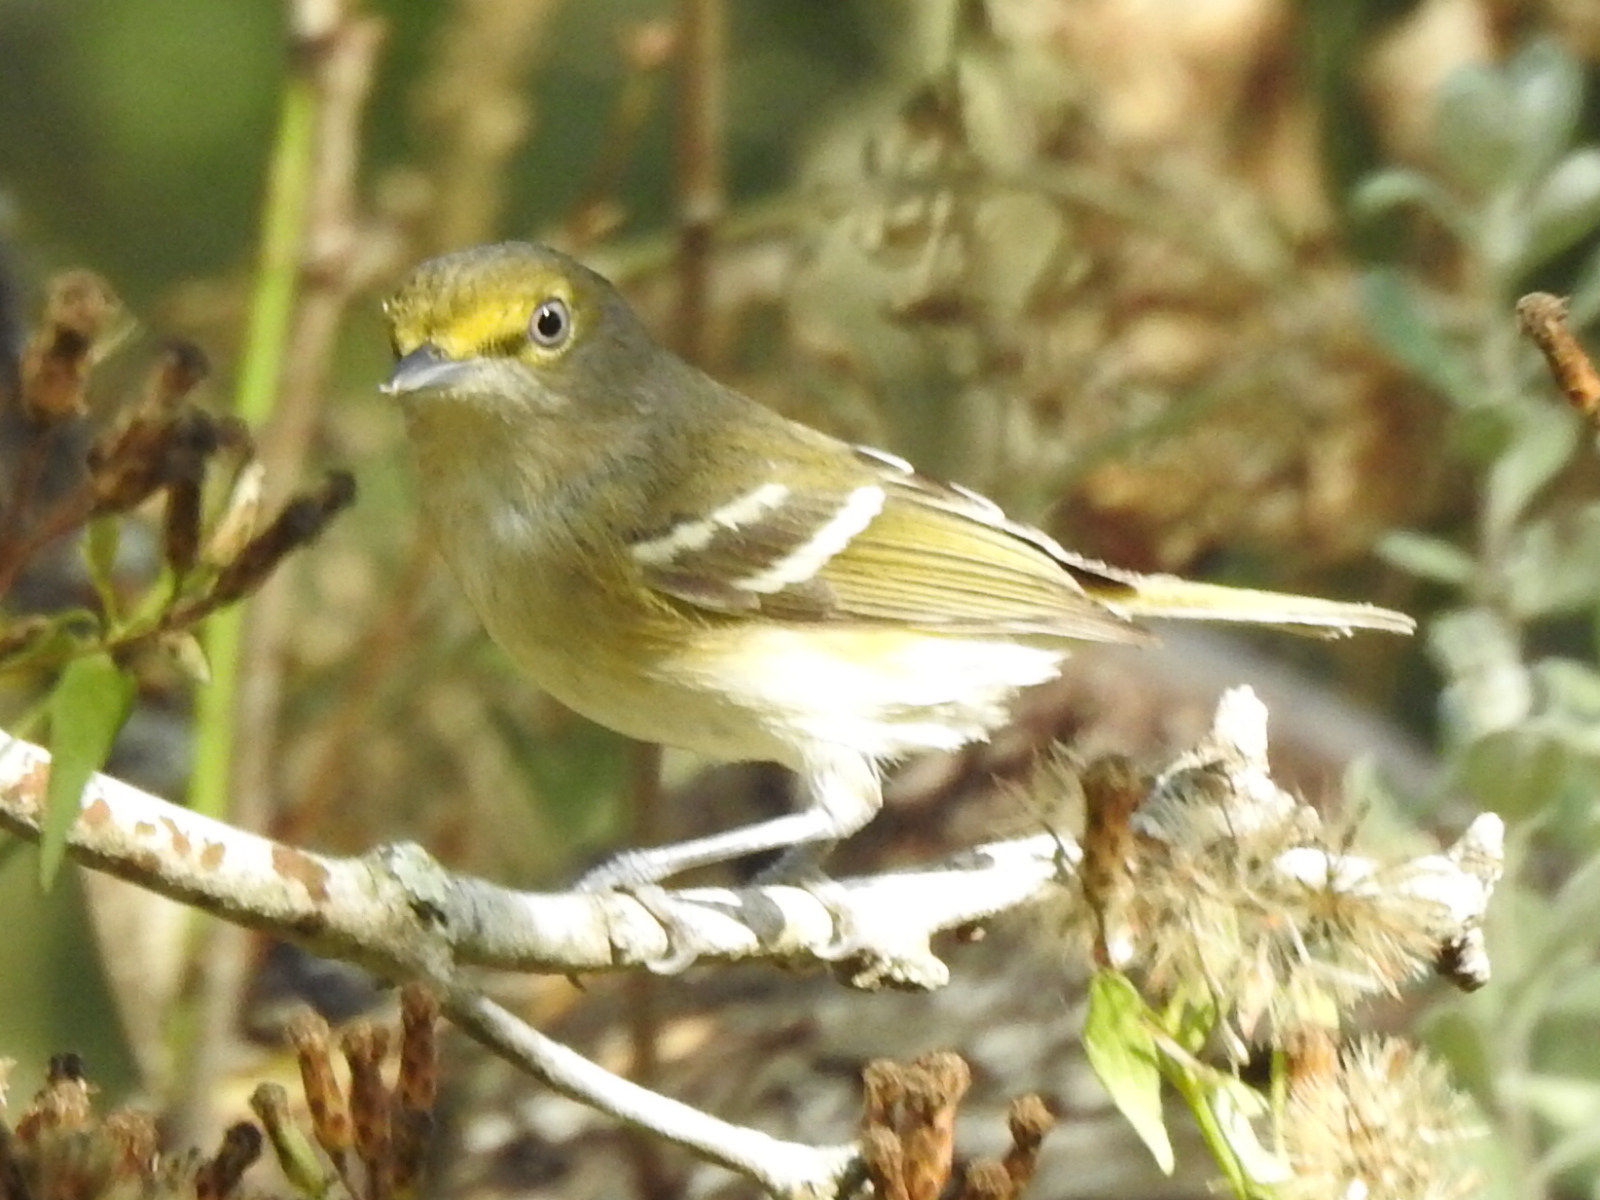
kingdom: Animalia
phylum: Chordata
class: Aves
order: Passeriformes
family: Vireonidae
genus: Vireo
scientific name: Vireo griseus
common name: White-eyed vireo
